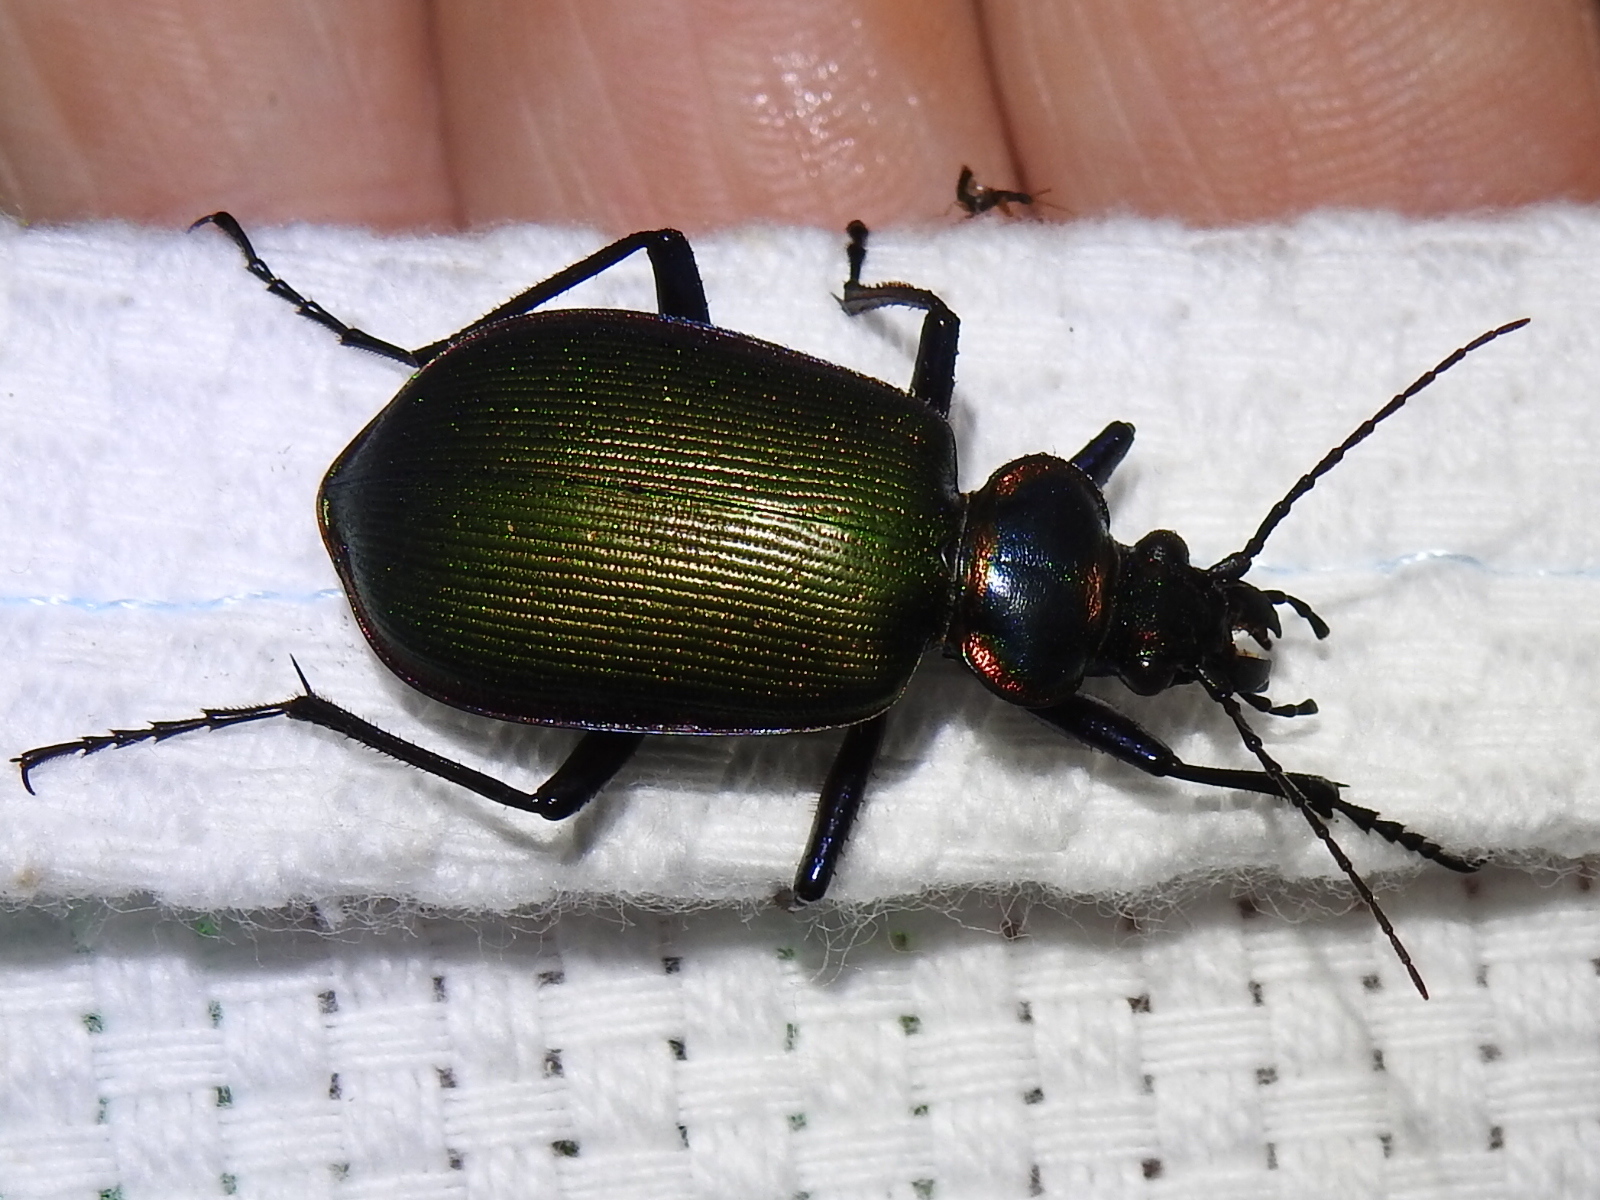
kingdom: Animalia
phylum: Arthropoda
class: Insecta
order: Coleoptera
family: Carabidae
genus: Calosoma
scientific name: Calosoma scrutator
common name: Fiery searcher beetle
